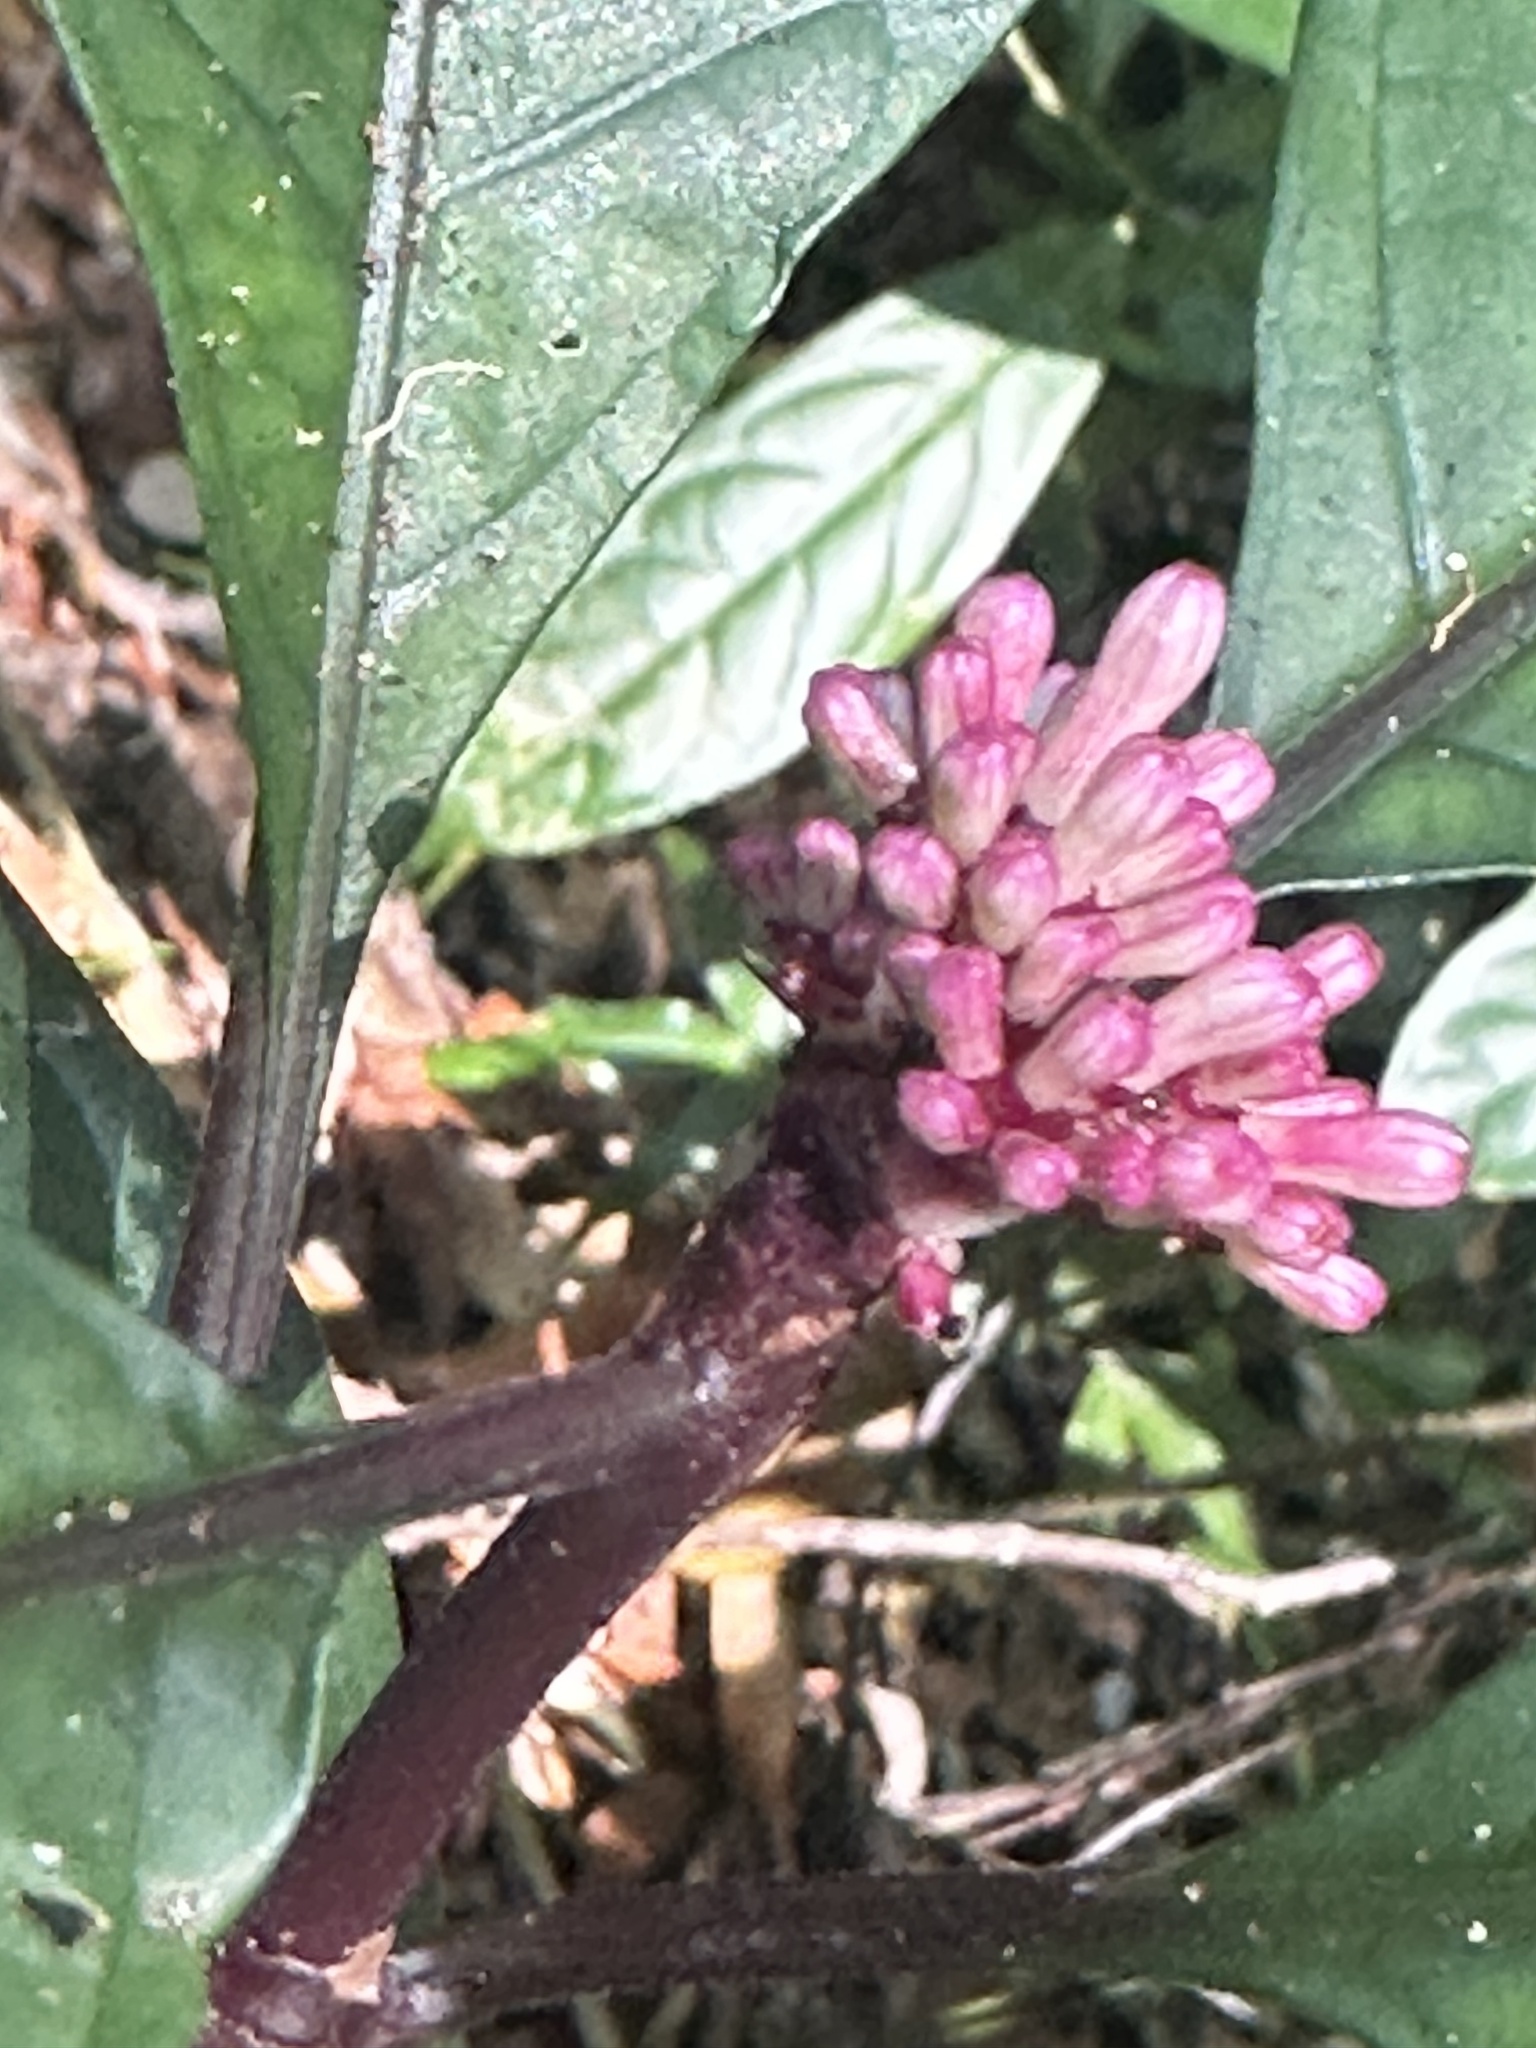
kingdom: Plantae
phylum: Tracheophyta
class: Magnoliopsida
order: Gentianales
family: Rubiaceae
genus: Chassalia
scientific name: Chassalia curviflora
